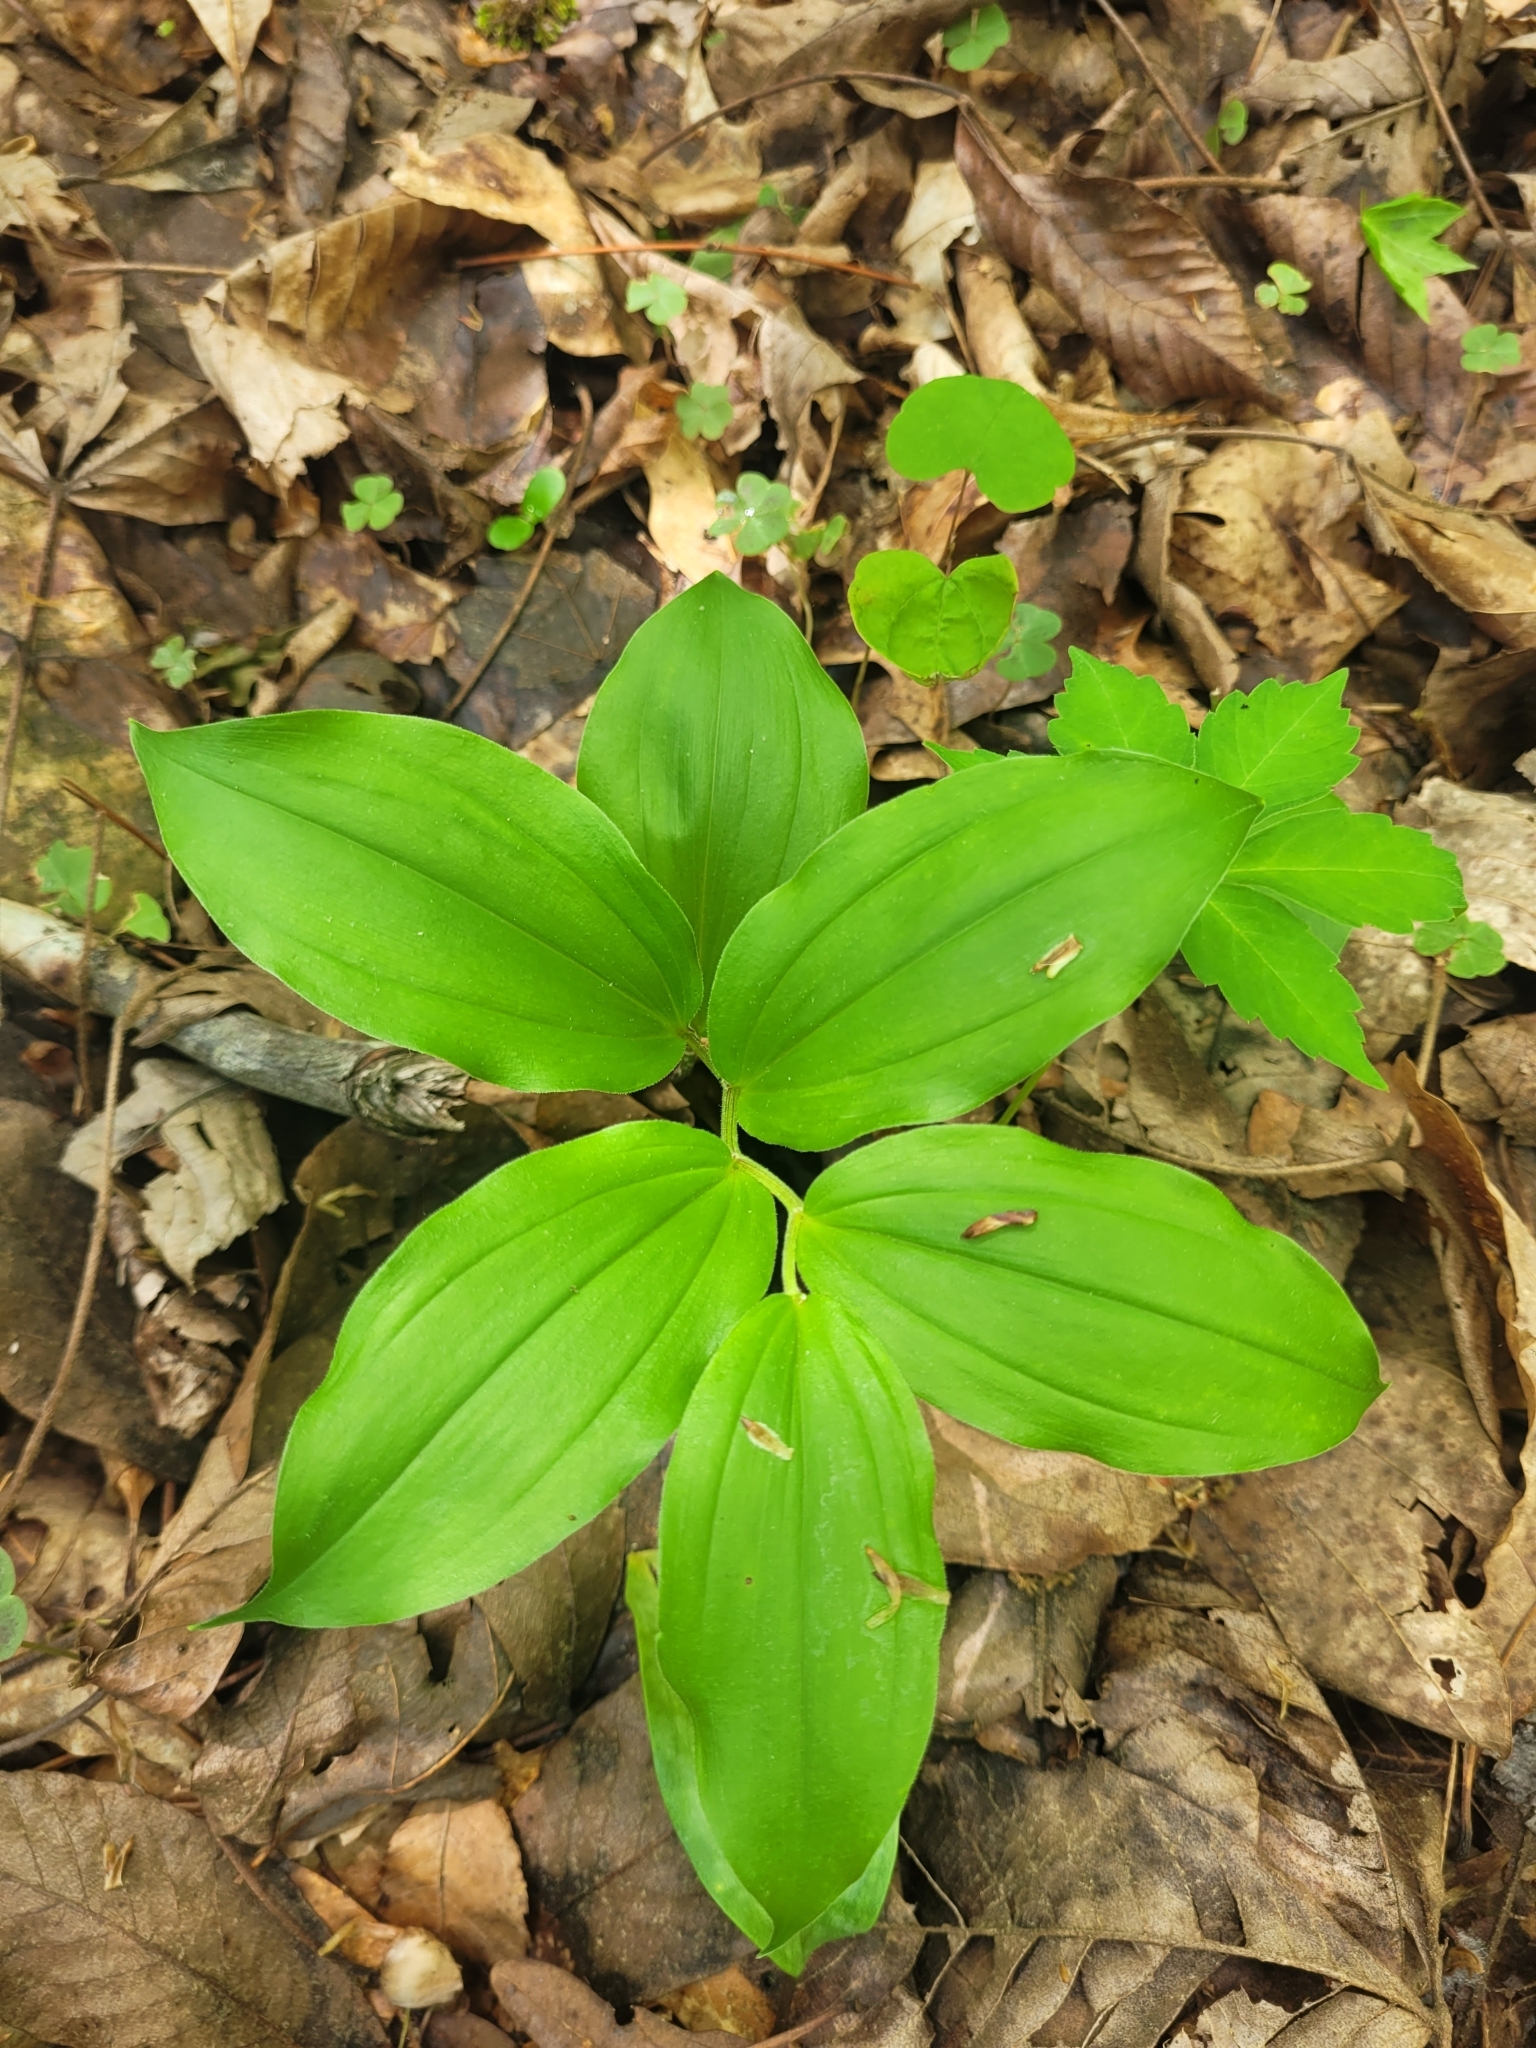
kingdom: Plantae
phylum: Tracheophyta
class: Liliopsida
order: Asparagales
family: Asparagaceae
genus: Maianthemum
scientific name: Maianthemum racemosum
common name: False spikenard
